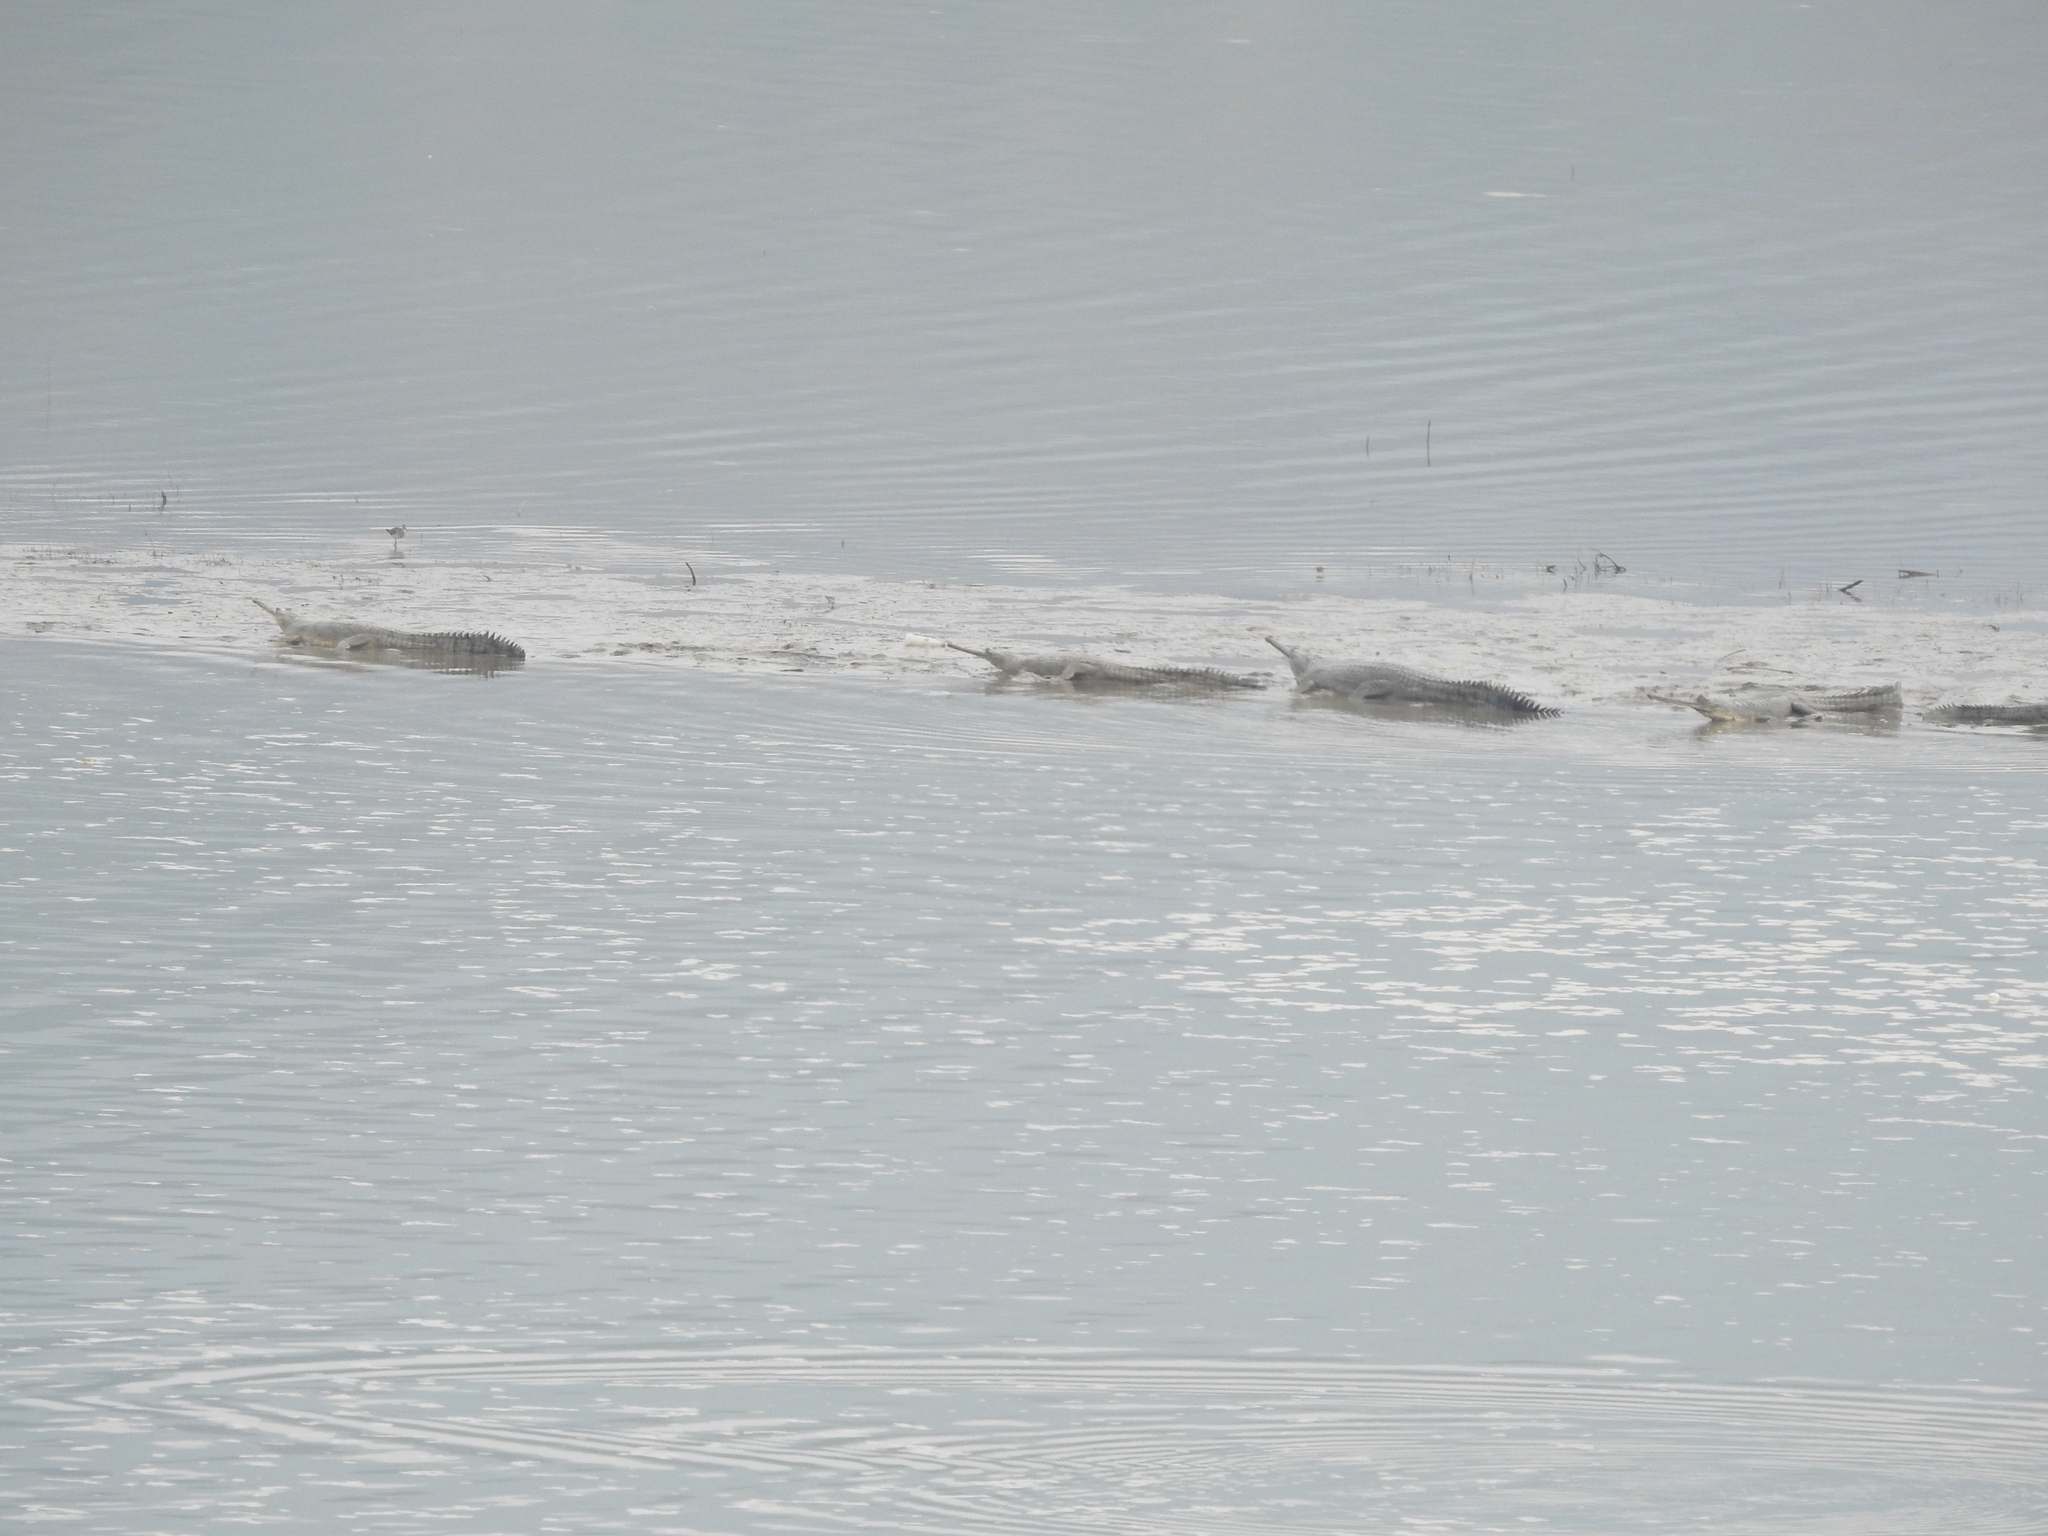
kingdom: Animalia
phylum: Chordata
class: Crocodylia
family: Gavialidae
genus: Gavialis
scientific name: Gavialis gangeticus
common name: Gharial
